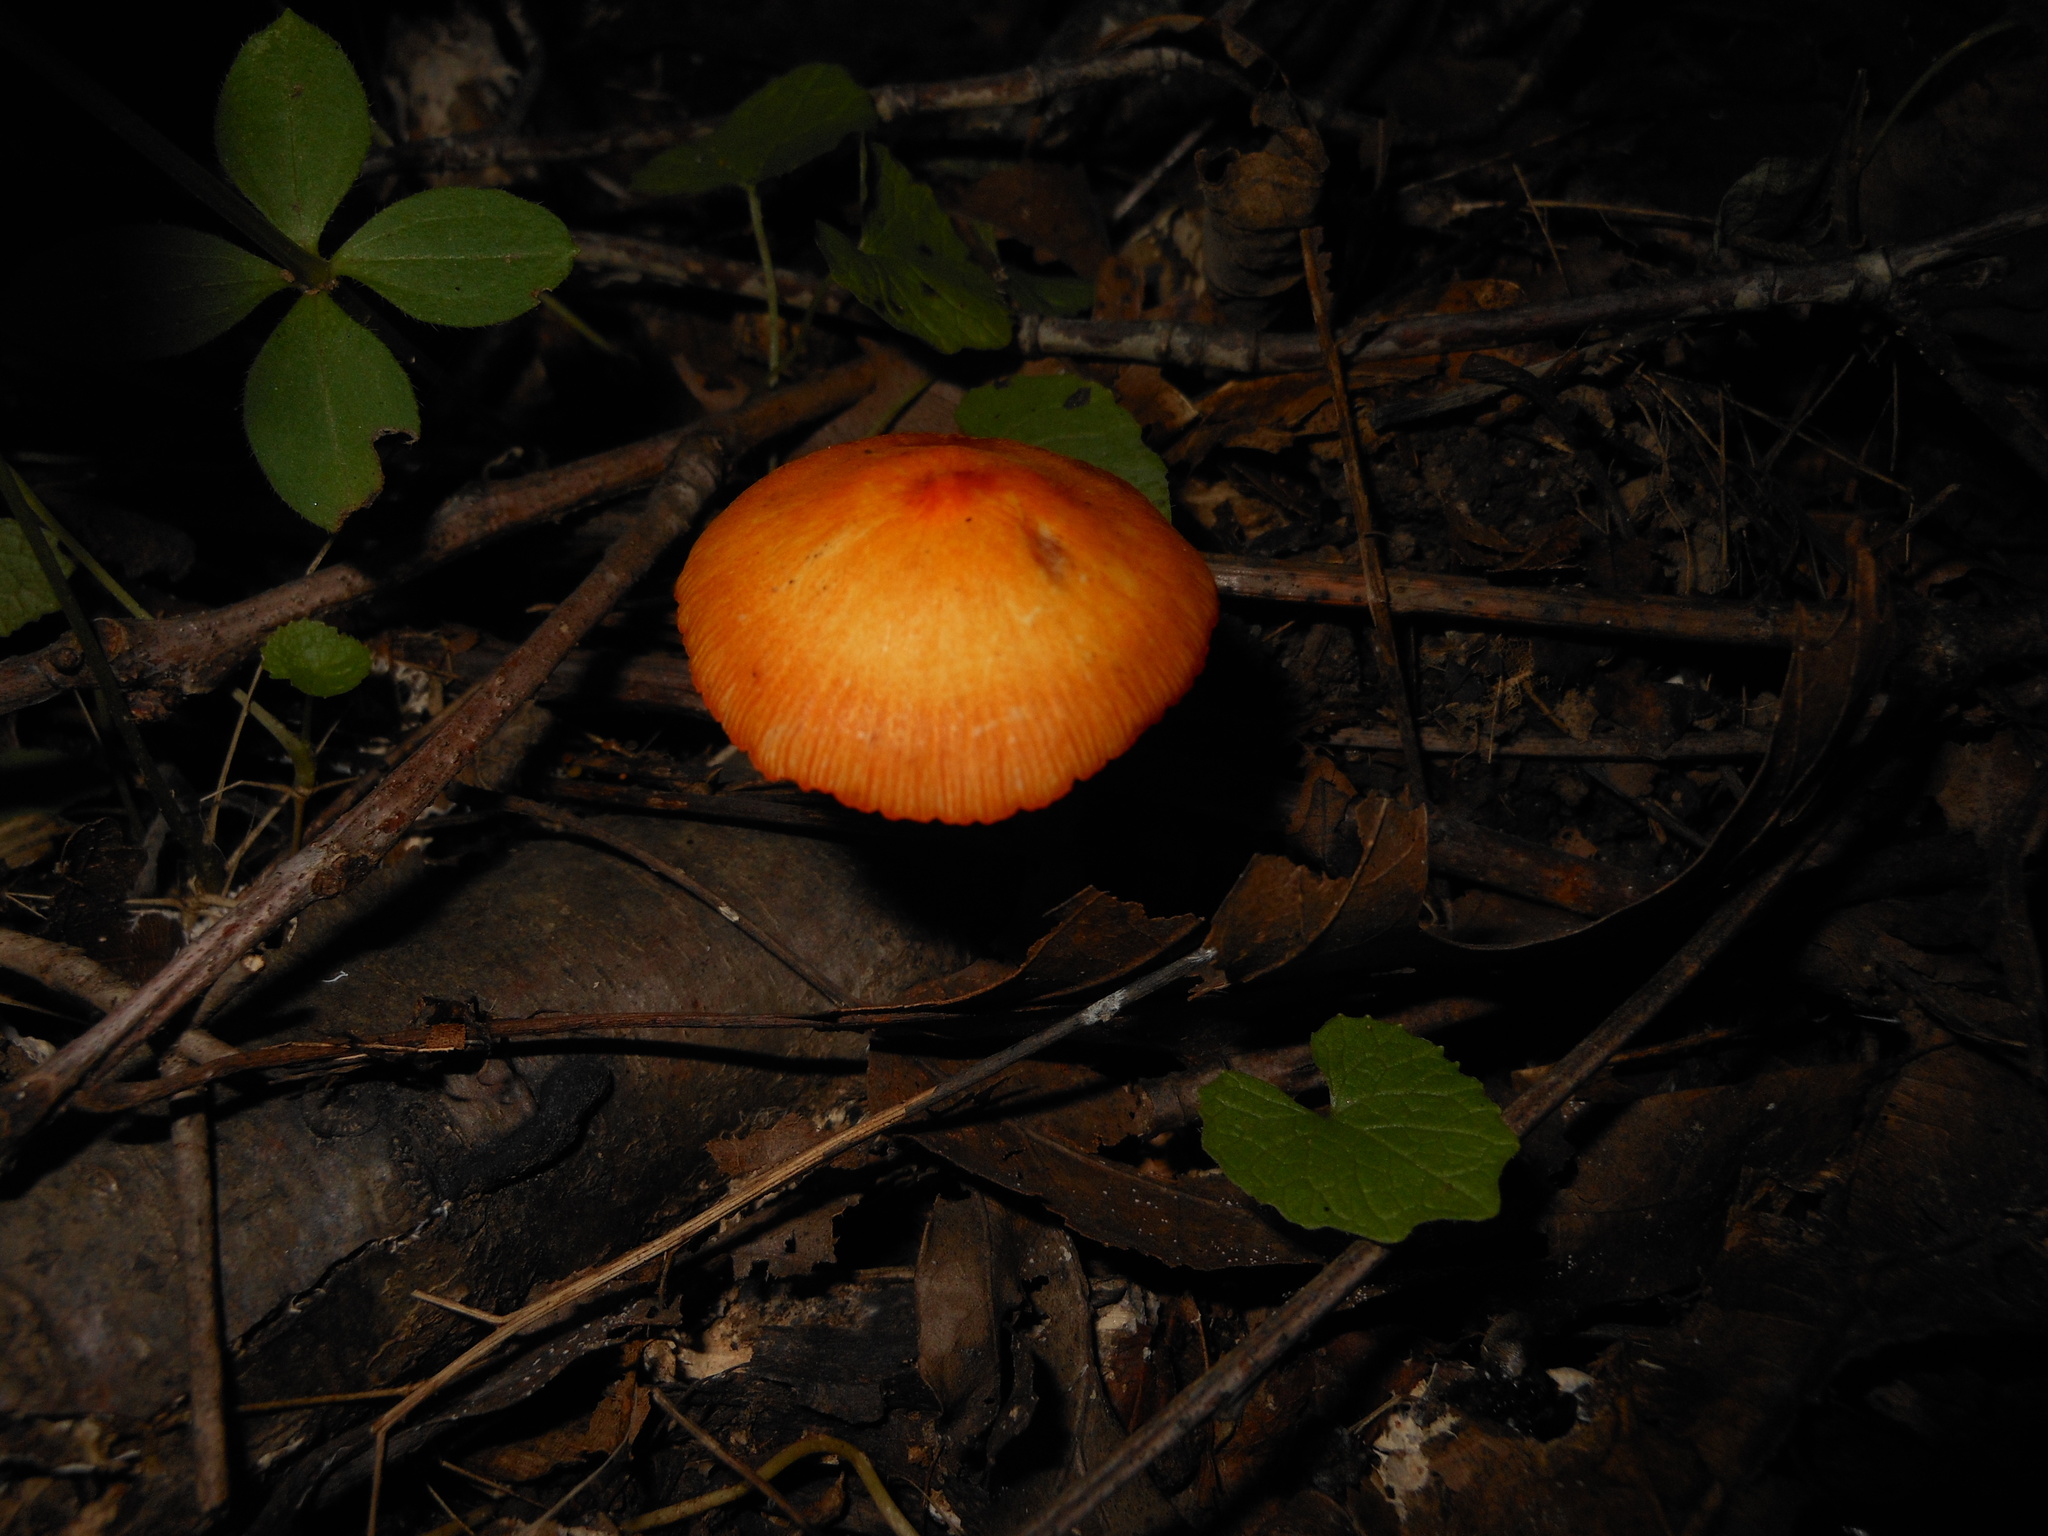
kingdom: Fungi
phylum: Basidiomycota
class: Agaricomycetes
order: Agaricales
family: Mycenaceae
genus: Mycena
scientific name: Mycena leaiana
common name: Orange mycena
